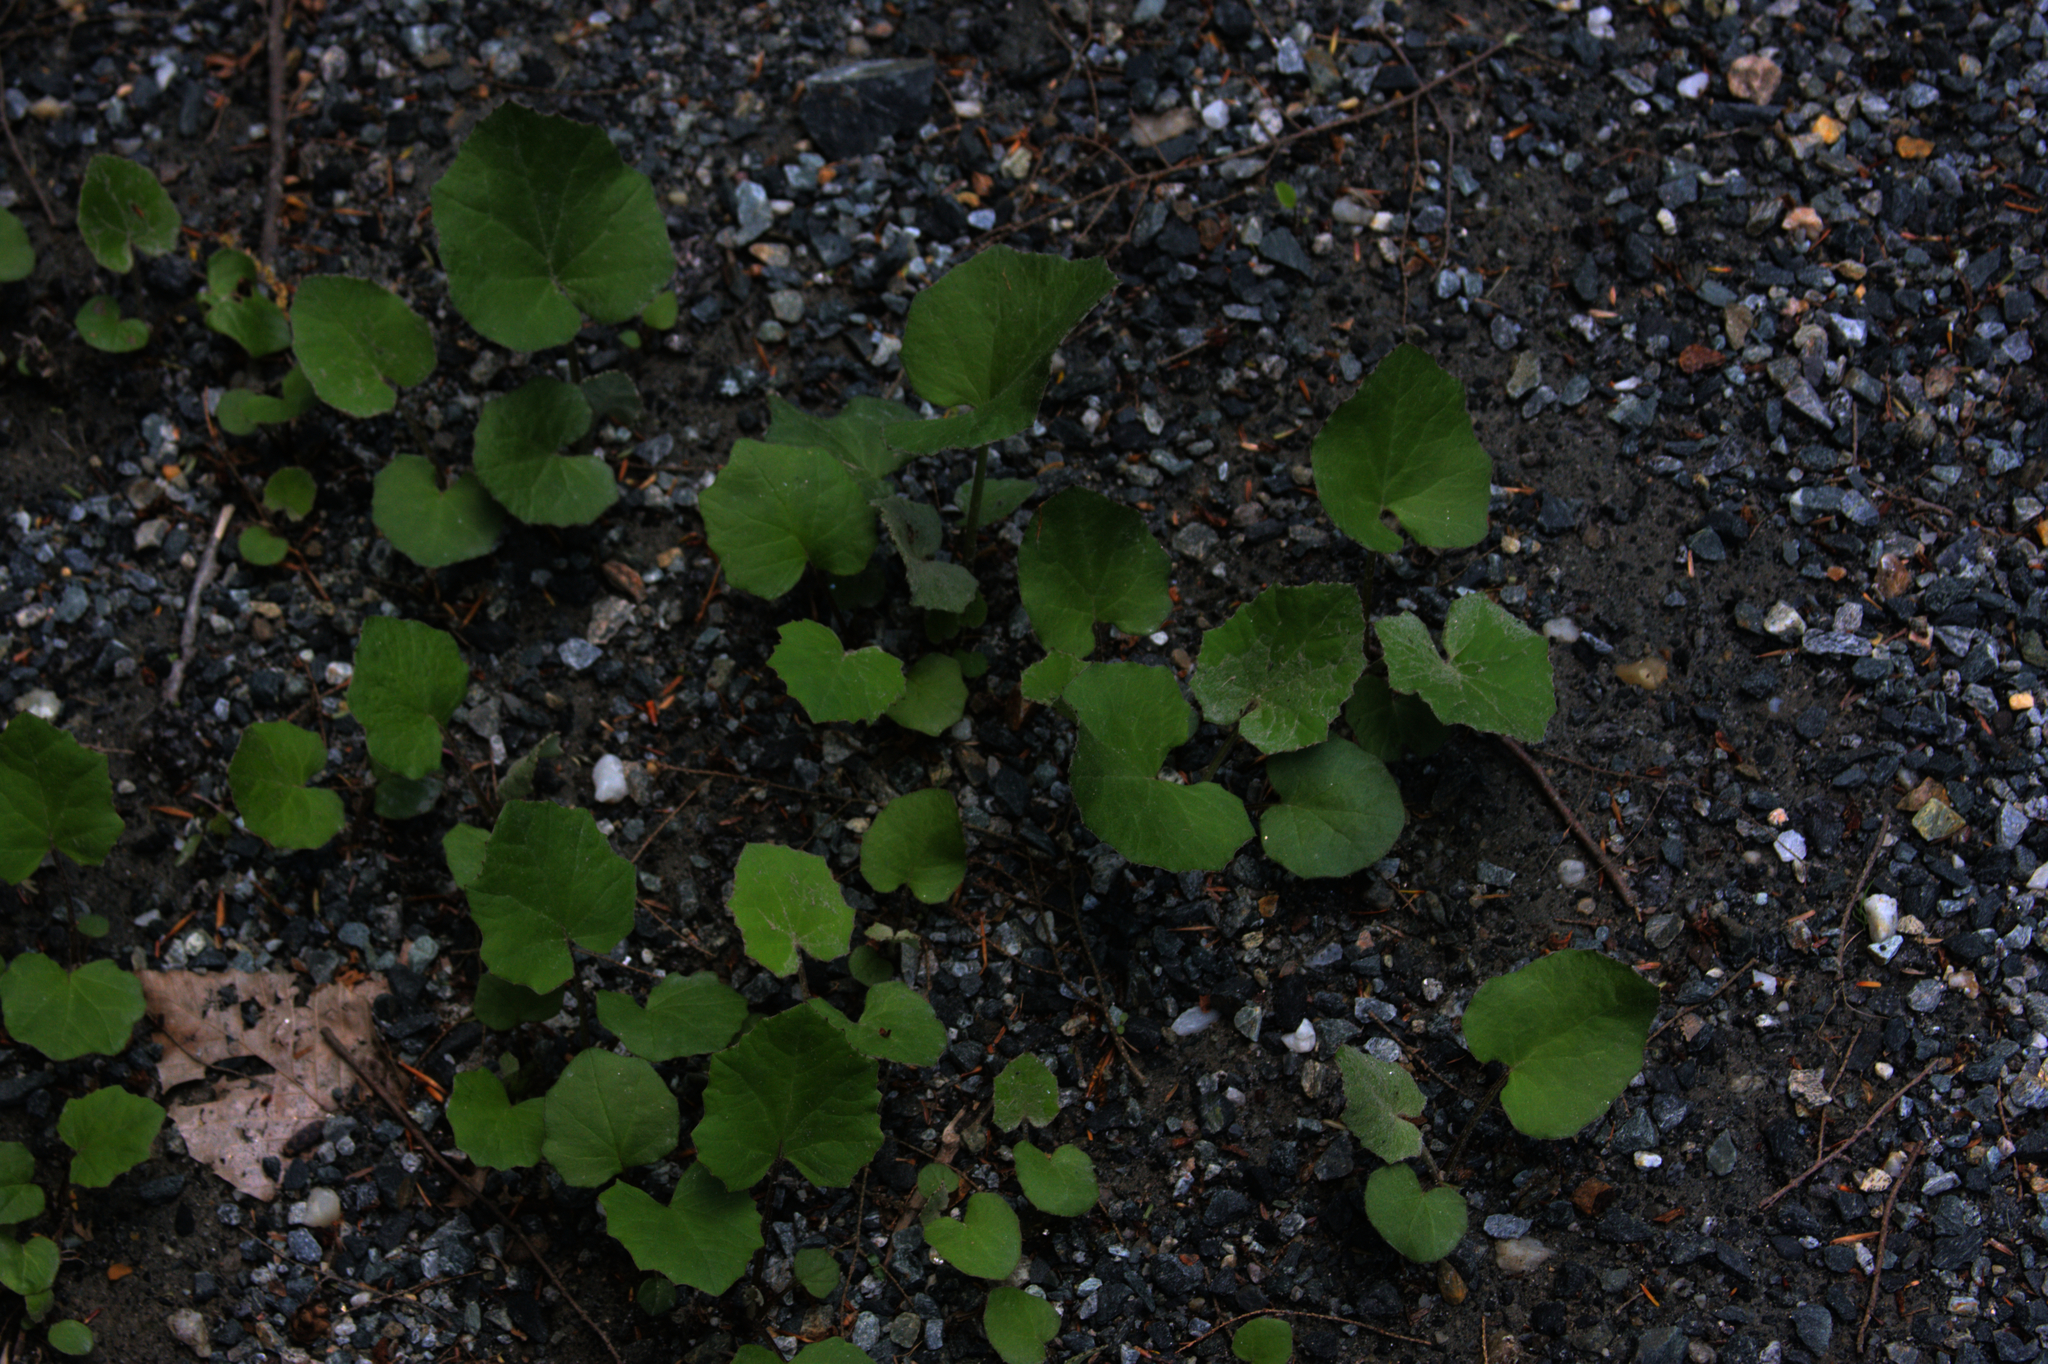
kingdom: Plantae
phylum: Tracheophyta
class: Magnoliopsida
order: Asterales
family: Asteraceae
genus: Tussilago
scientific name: Tussilago farfara
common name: Coltsfoot
